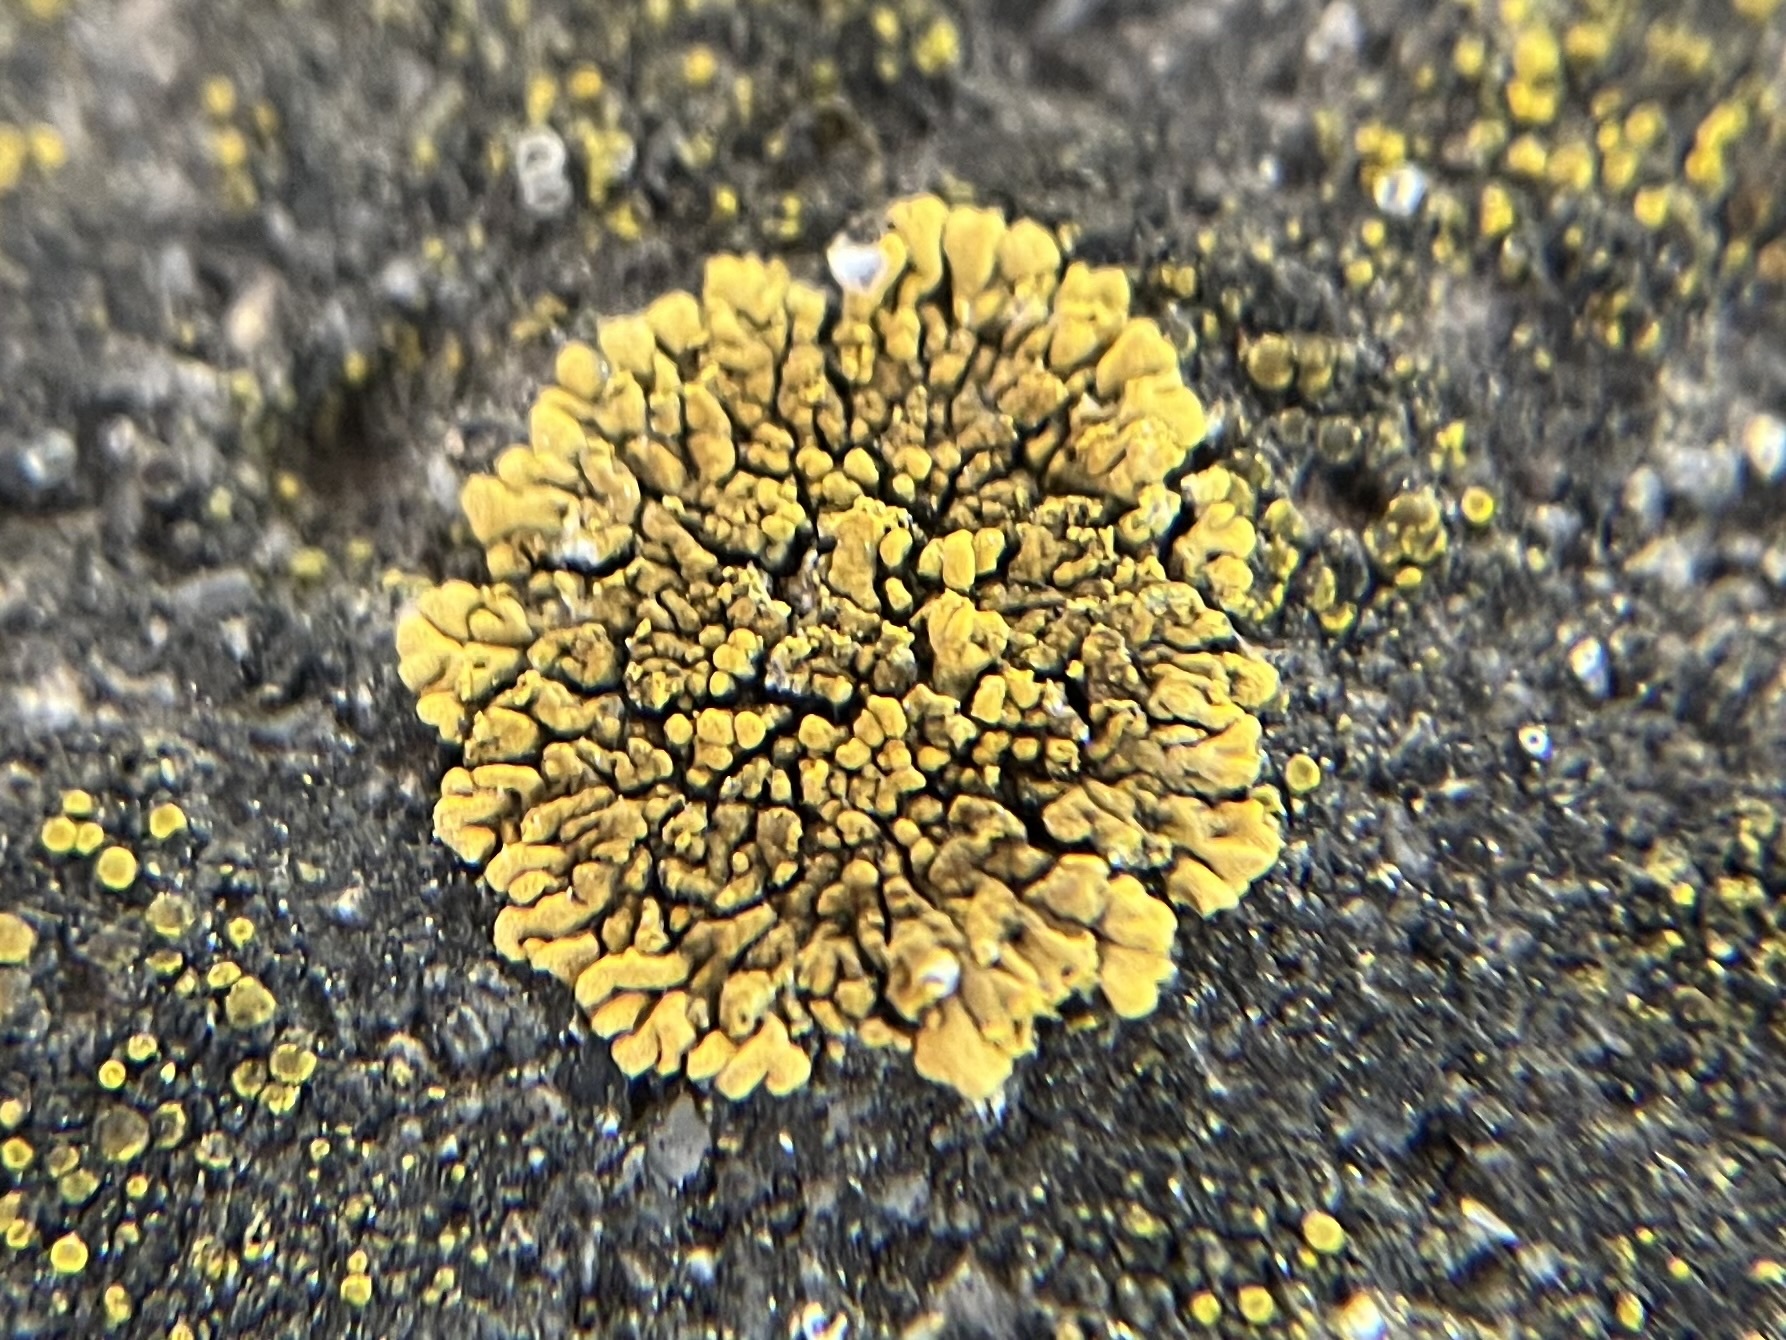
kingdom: Fungi
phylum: Ascomycota
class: Lecanoromycetes
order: Teloschistales
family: Teloschistaceae
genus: Calogaya
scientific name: Calogaya decipiens
